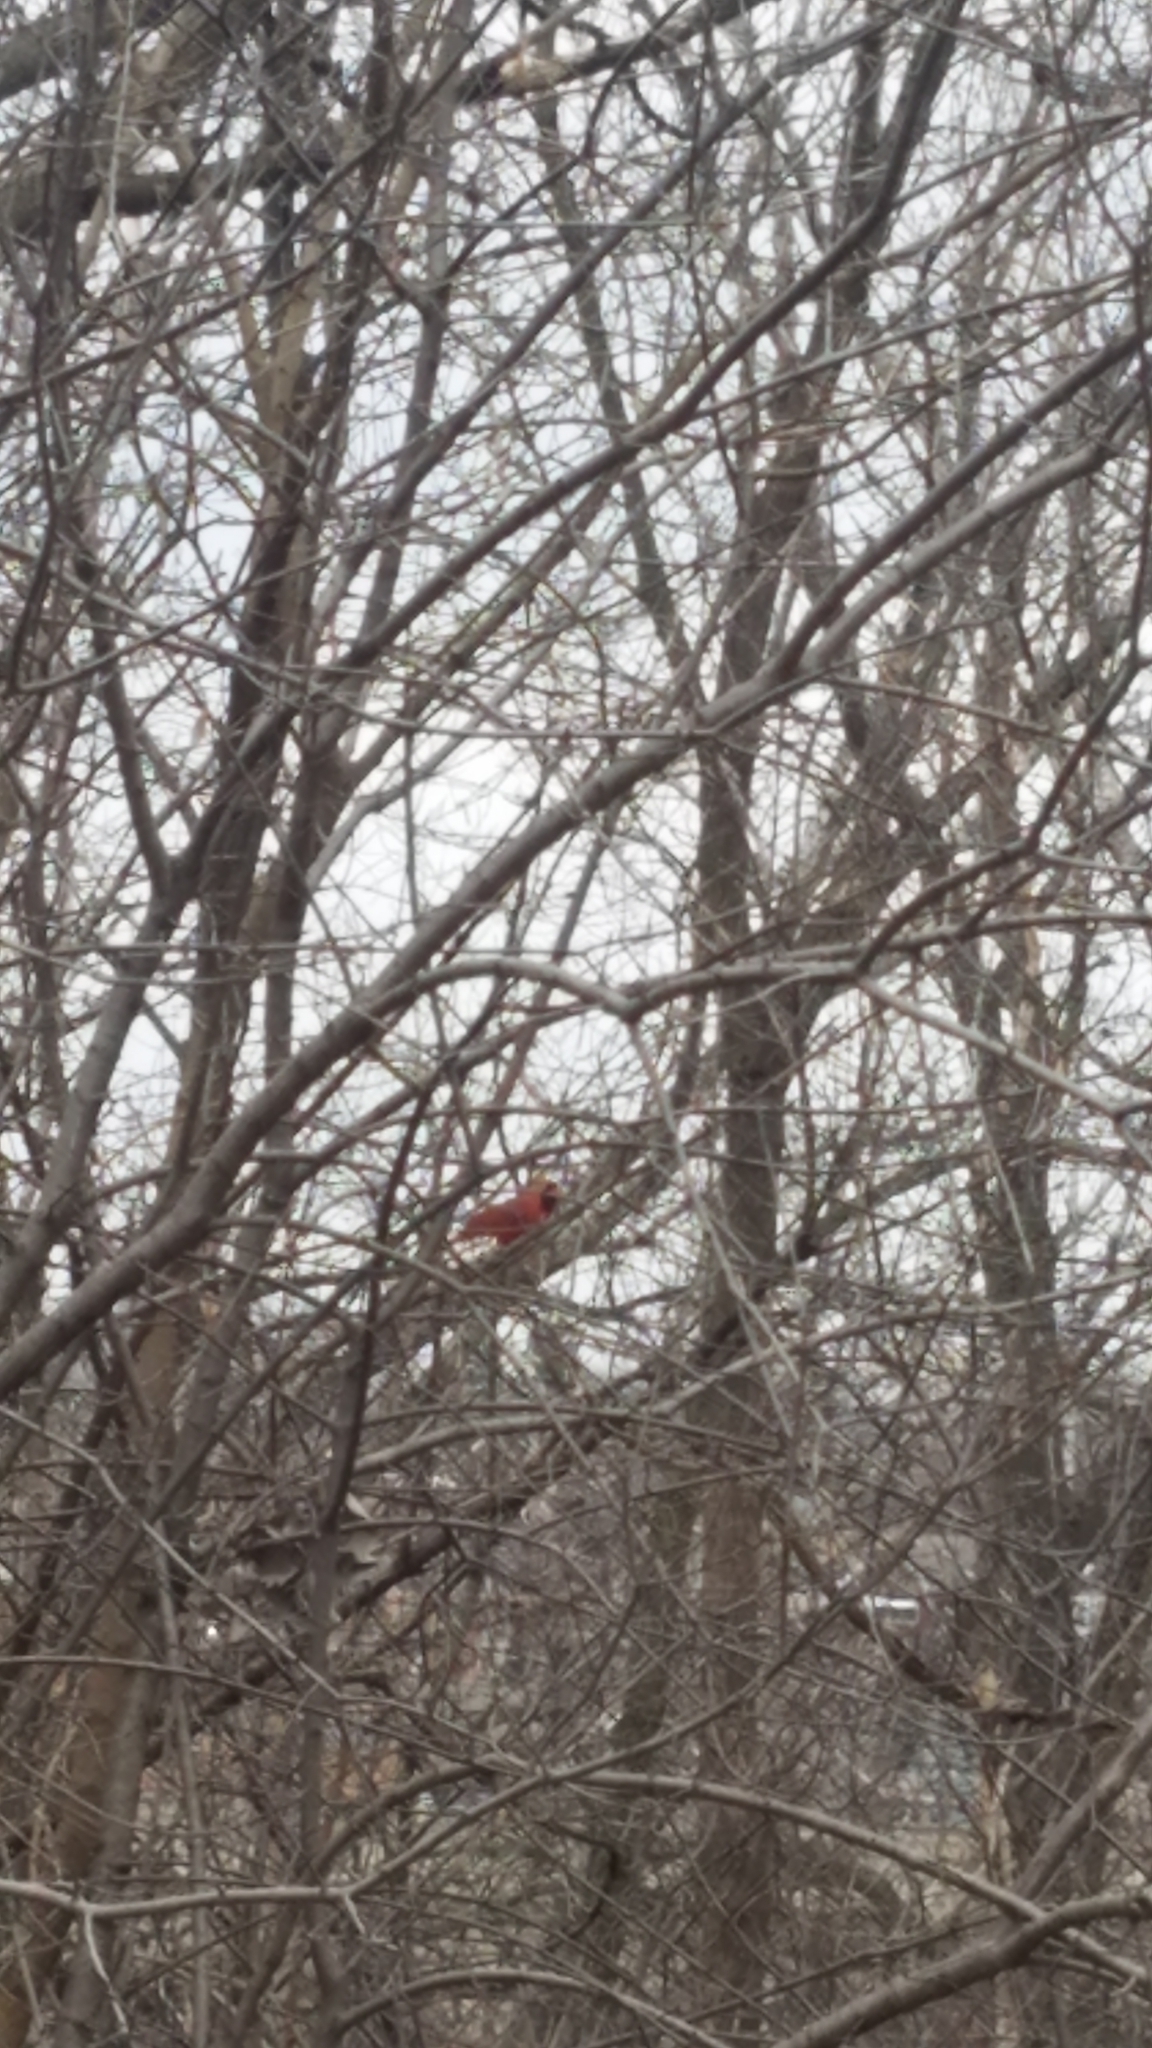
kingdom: Animalia
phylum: Chordata
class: Aves
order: Passeriformes
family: Cardinalidae
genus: Cardinalis
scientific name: Cardinalis cardinalis
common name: Northern cardinal
